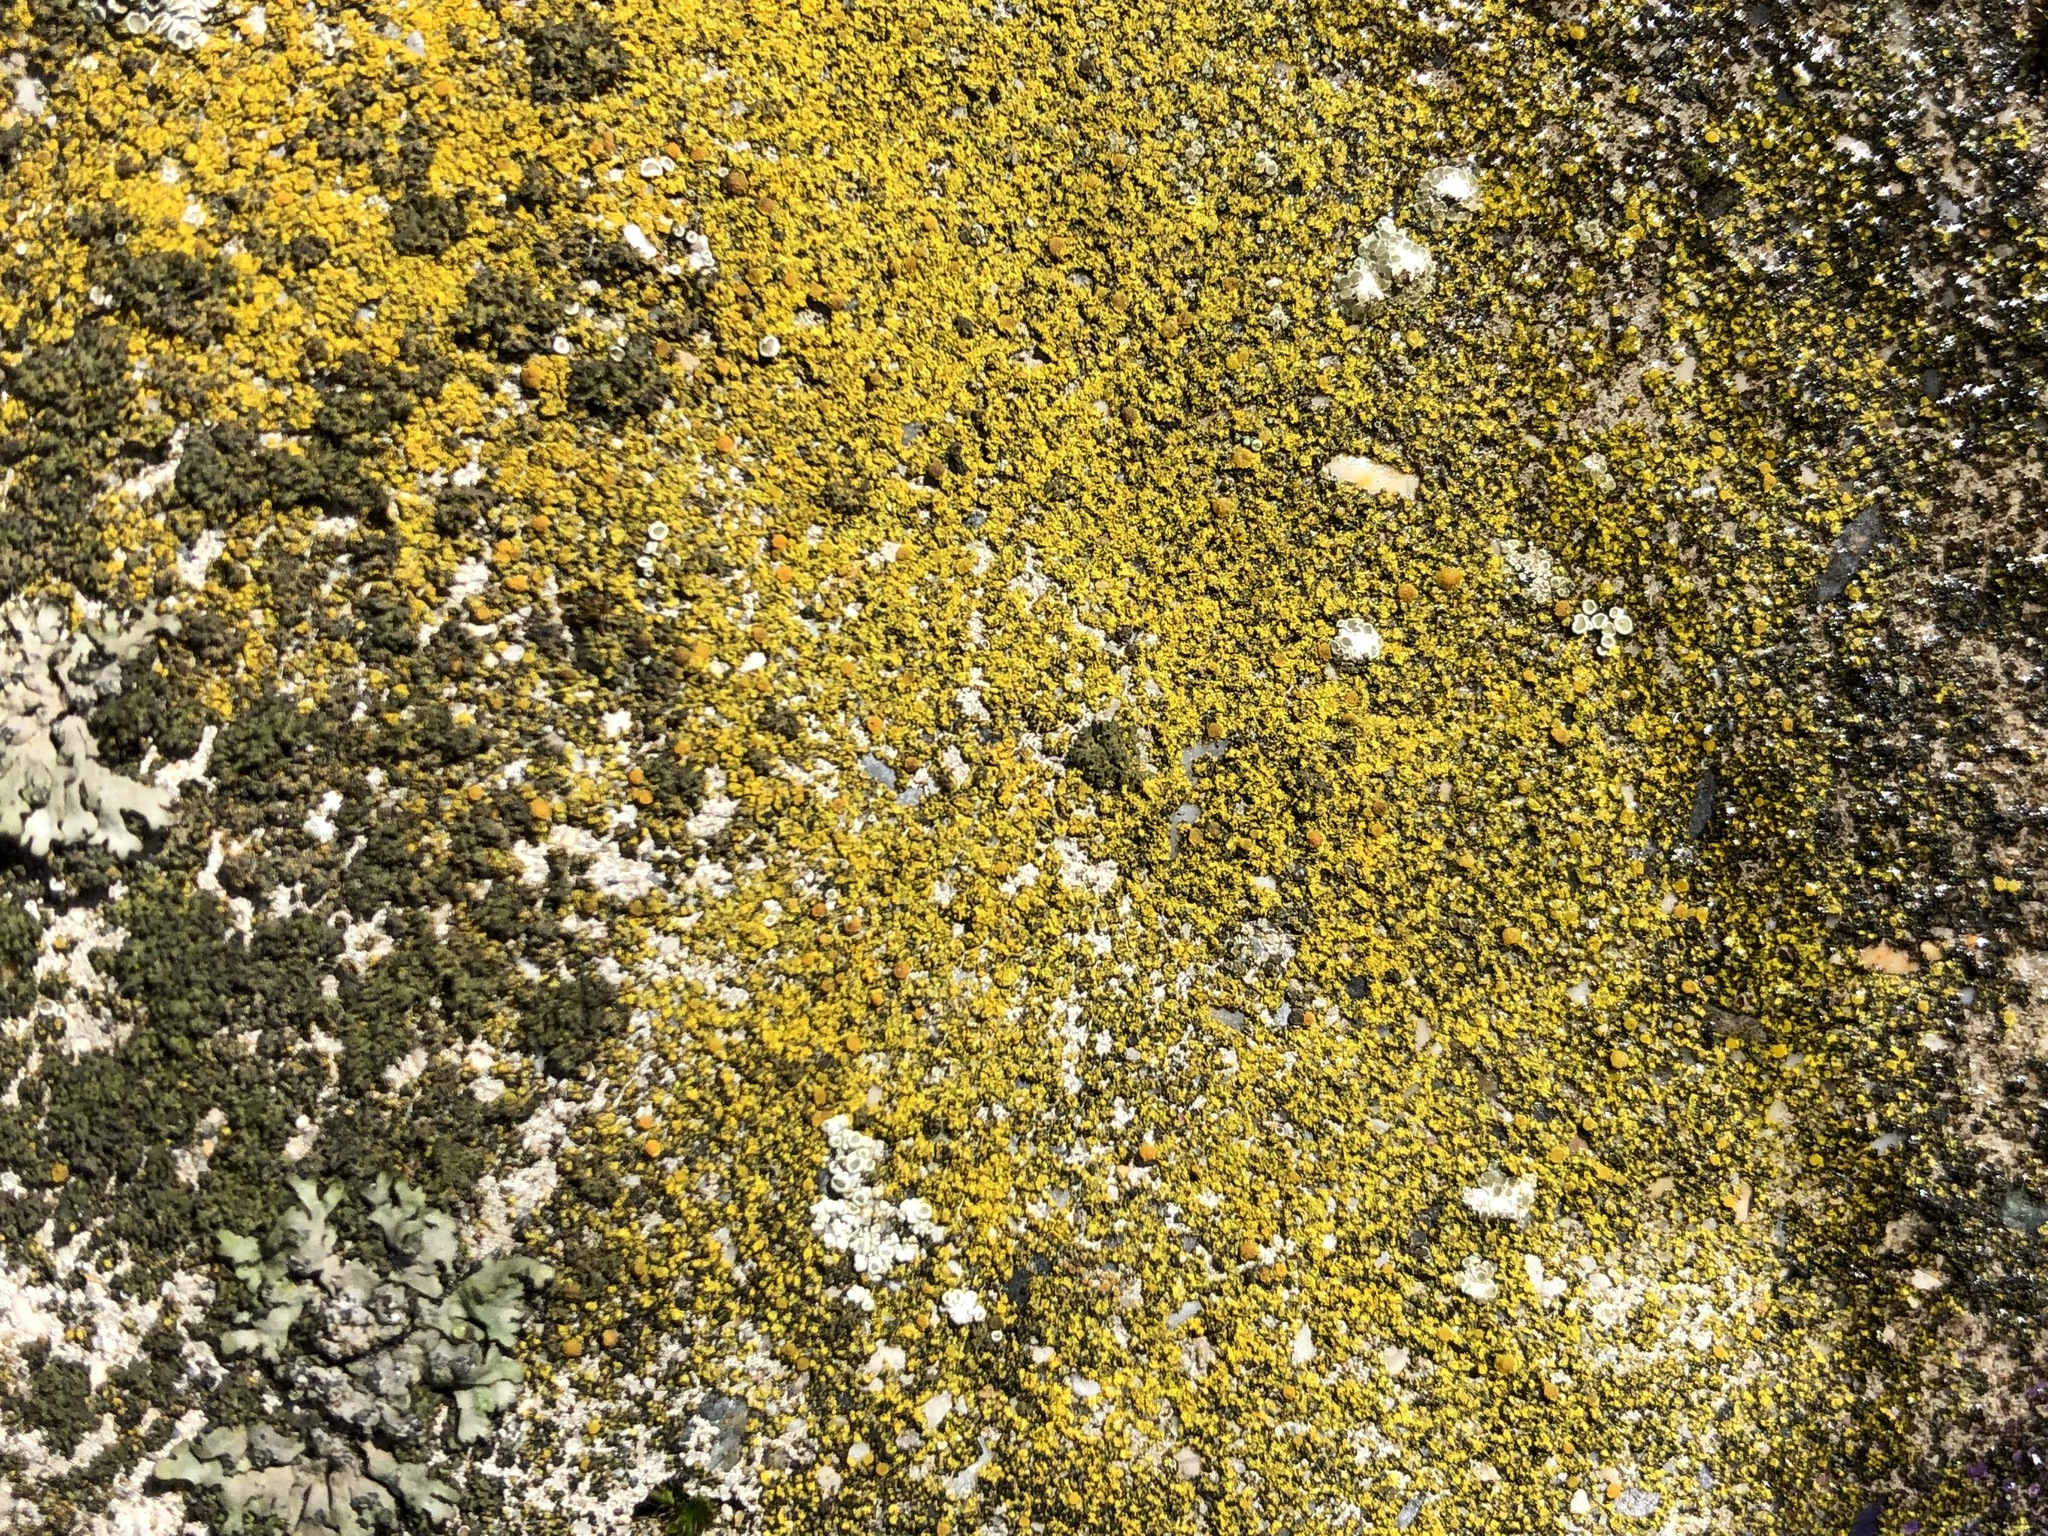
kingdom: Fungi
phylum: Ascomycota
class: Lecanoromycetes
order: Teloschistales
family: Teloschistaceae
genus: Flavoplaca
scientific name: Flavoplaca citrina
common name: Mealy firedot lichen
